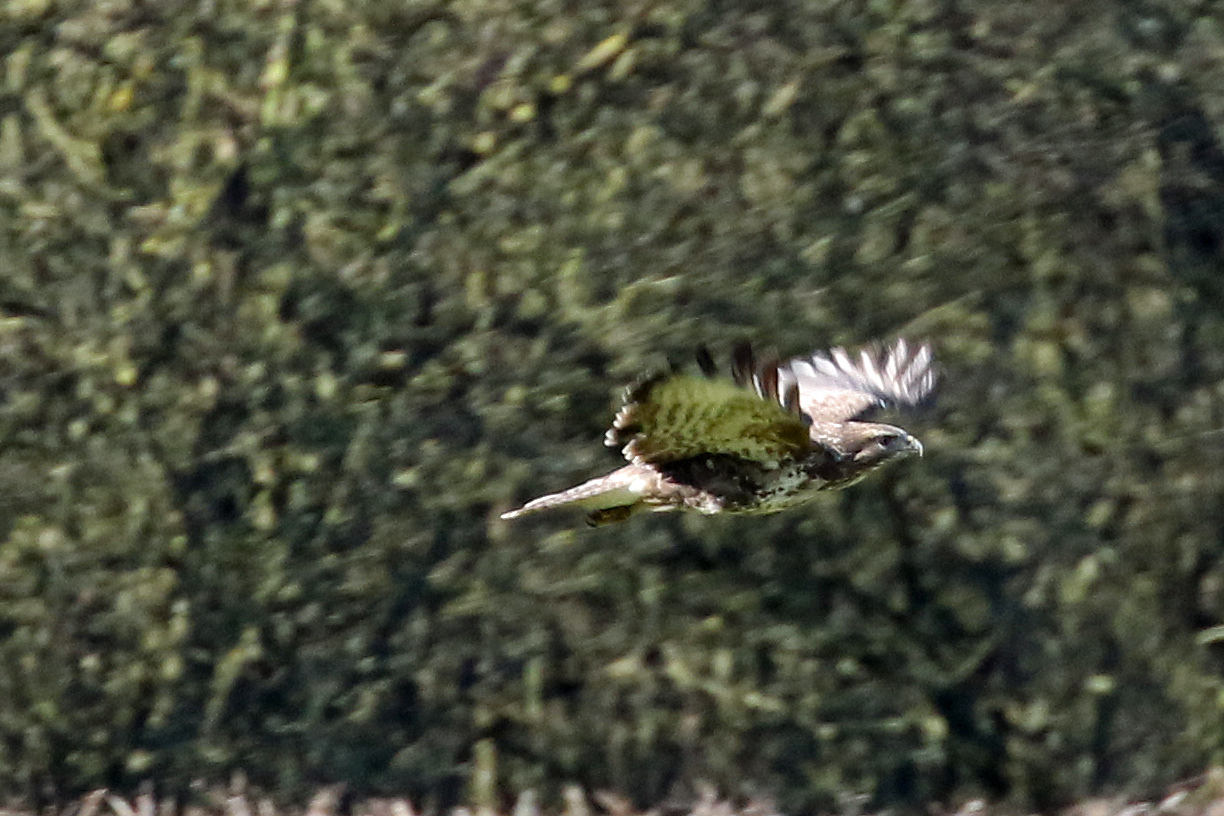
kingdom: Animalia
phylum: Chordata
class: Aves
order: Accipitriformes
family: Accipitridae
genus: Buteo
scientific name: Buteo buteo
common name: Common buzzard
